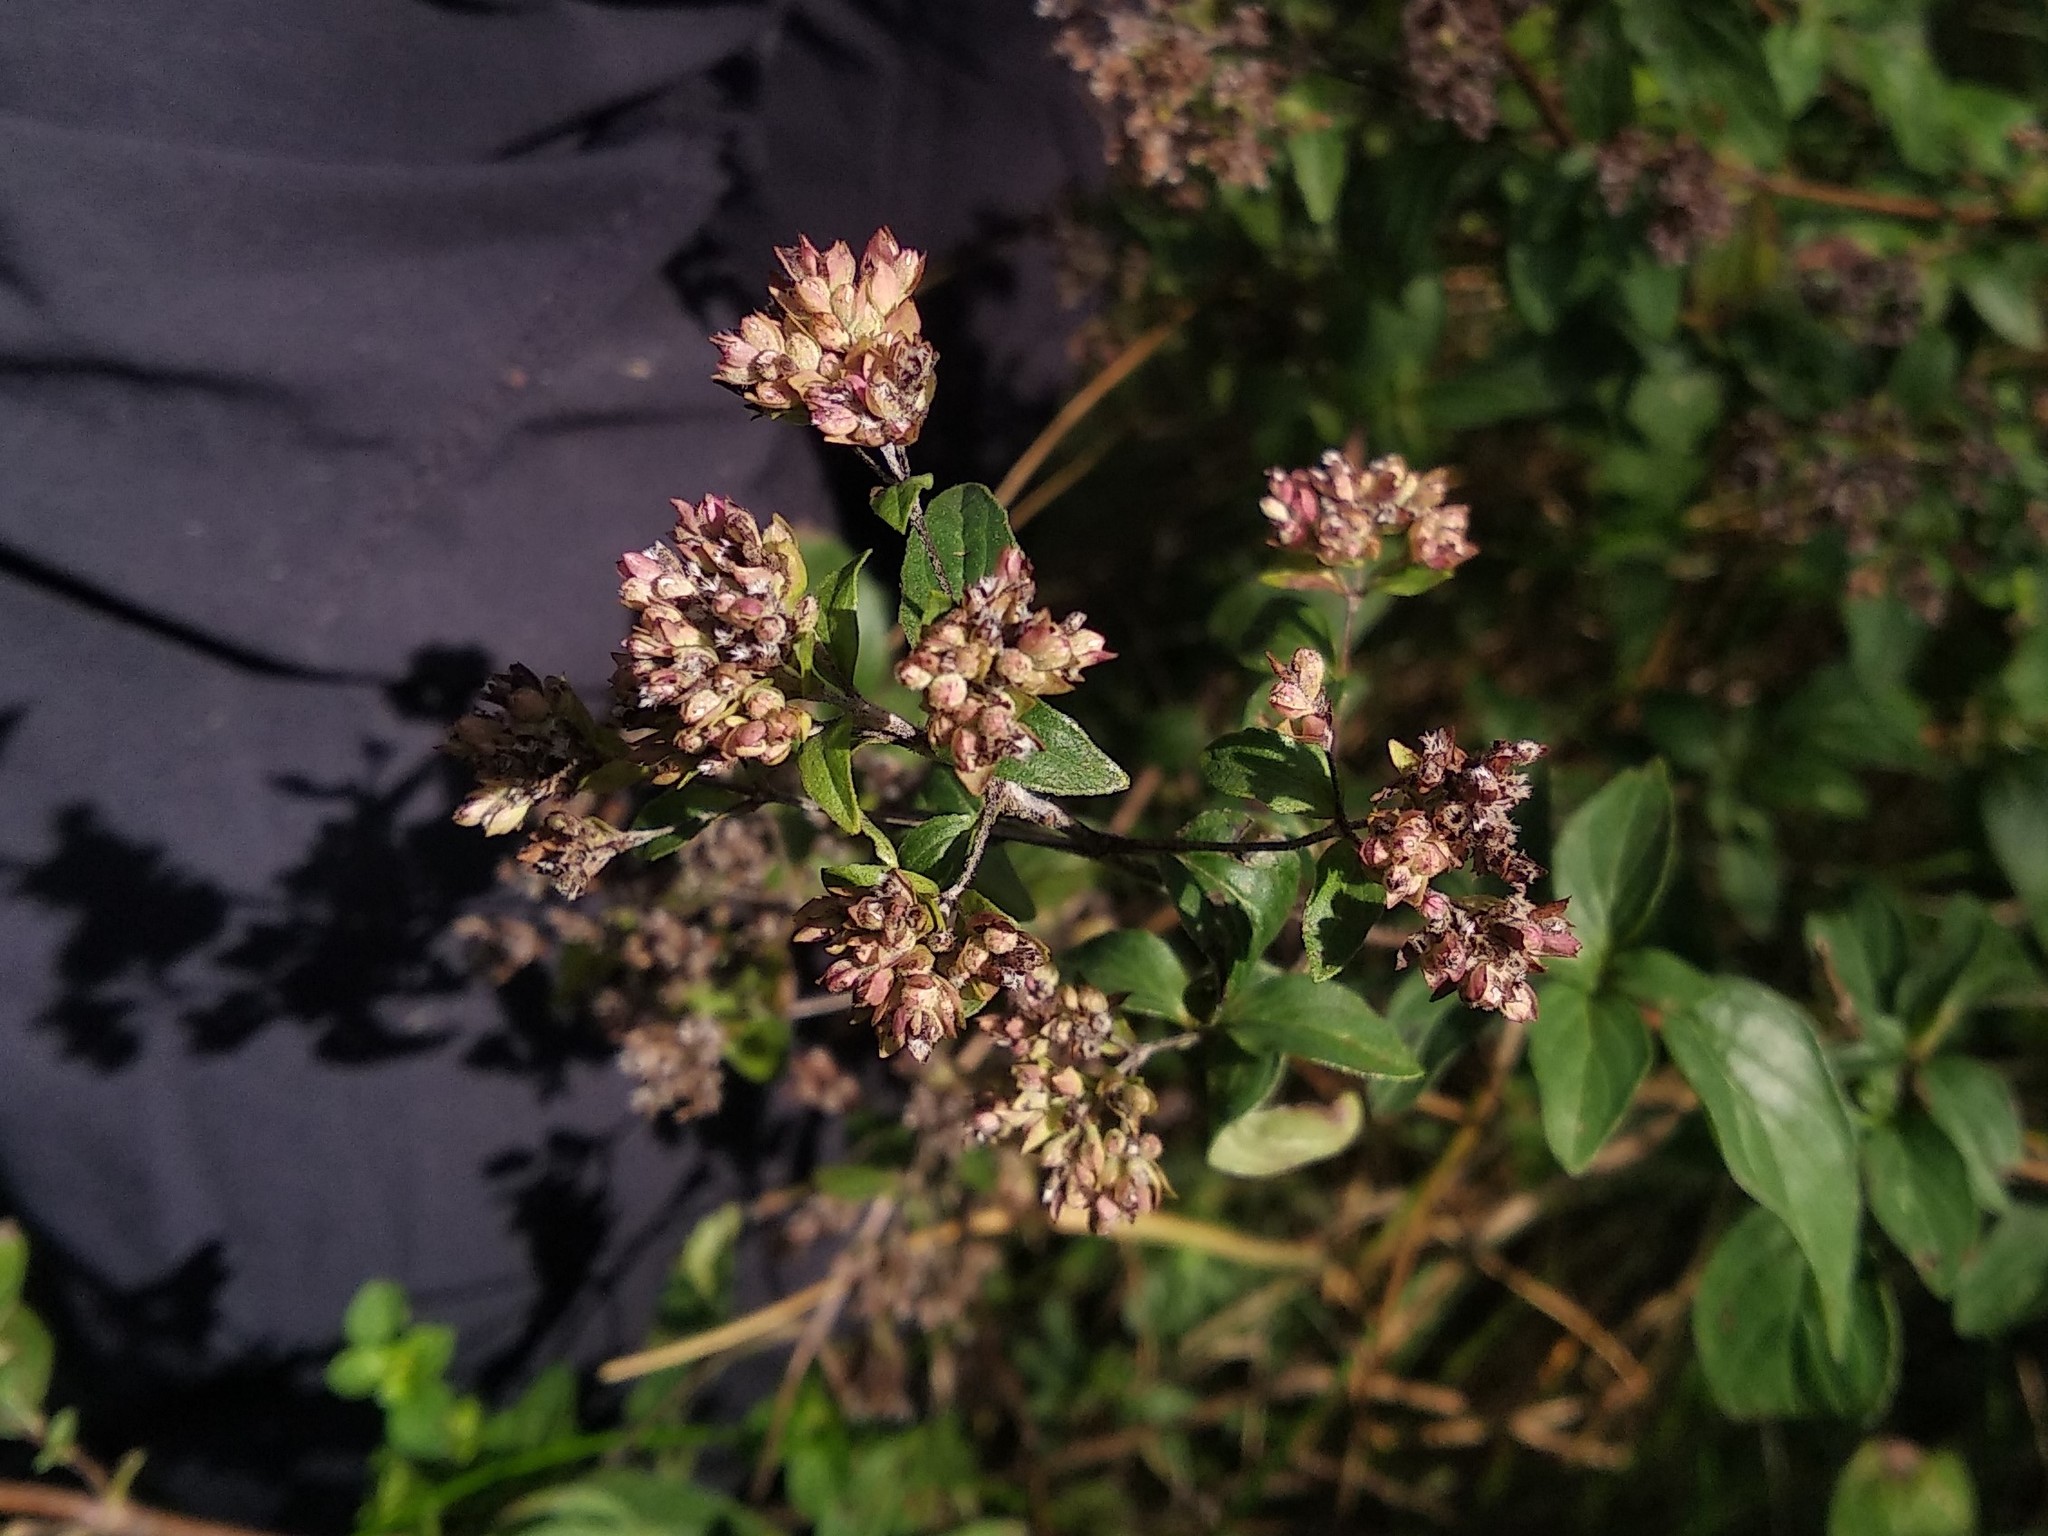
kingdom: Plantae
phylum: Tracheophyta
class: Magnoliopsida
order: Lamiales
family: Lamiaceae
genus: Origanum
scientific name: Origanum vulgare
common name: Wild marjoram
